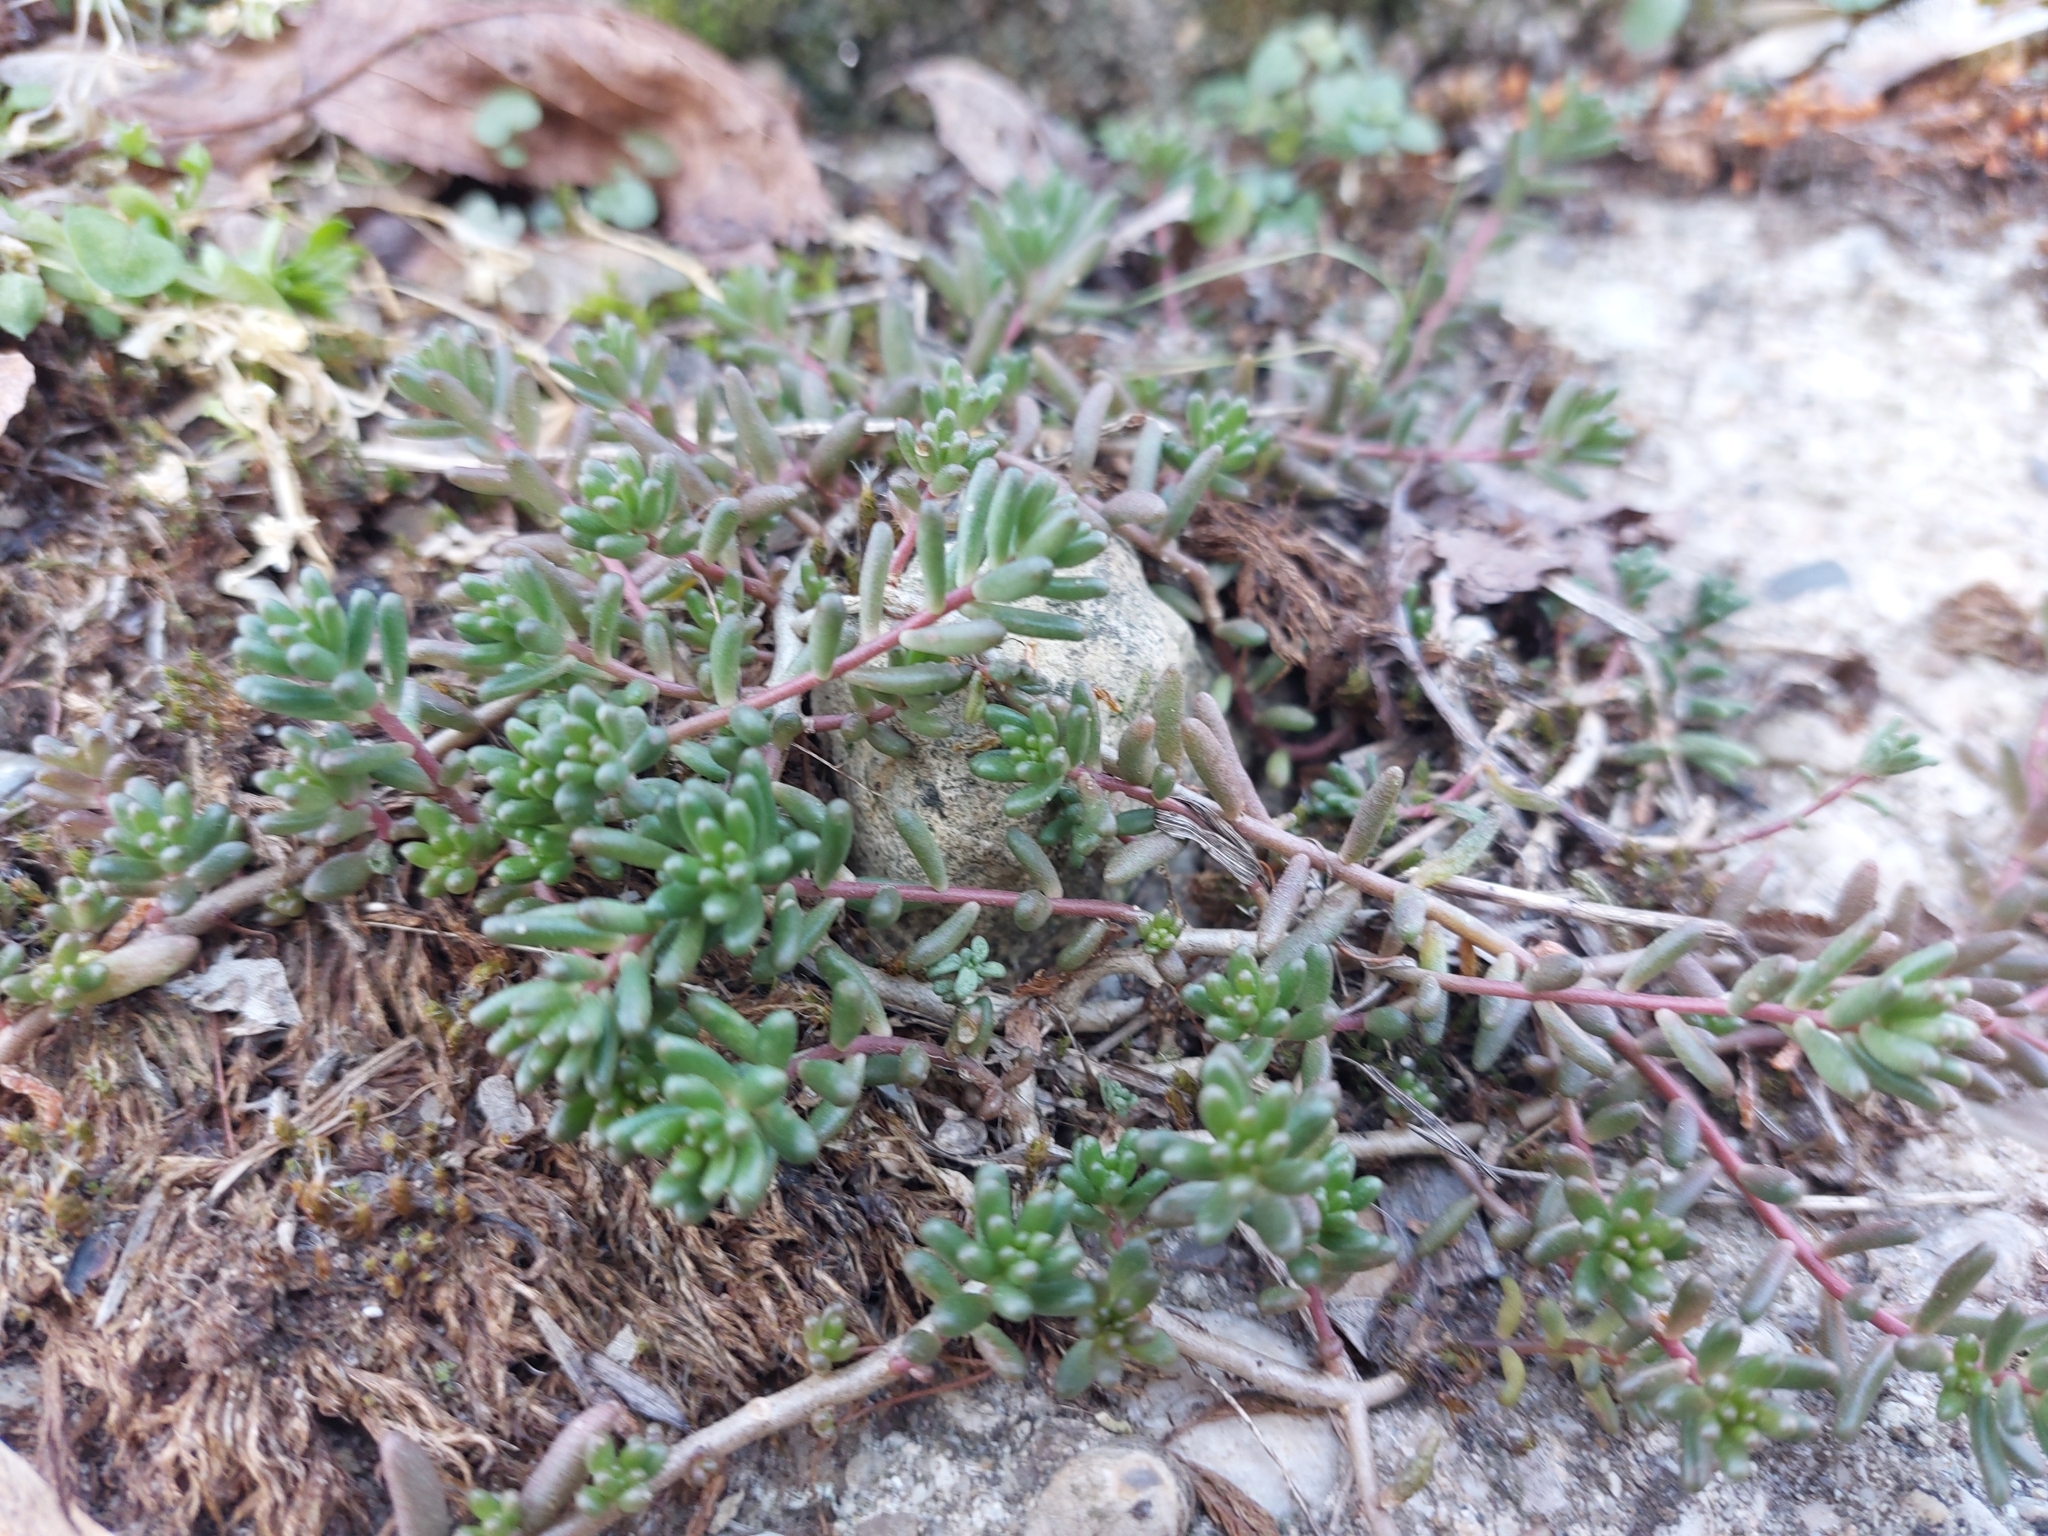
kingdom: Plantae
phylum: Tracheophyta
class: Magnoliopsida
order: Saxifragales
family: Crassulaceae
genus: Sedum
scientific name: Sedum album
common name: White stonecrop
